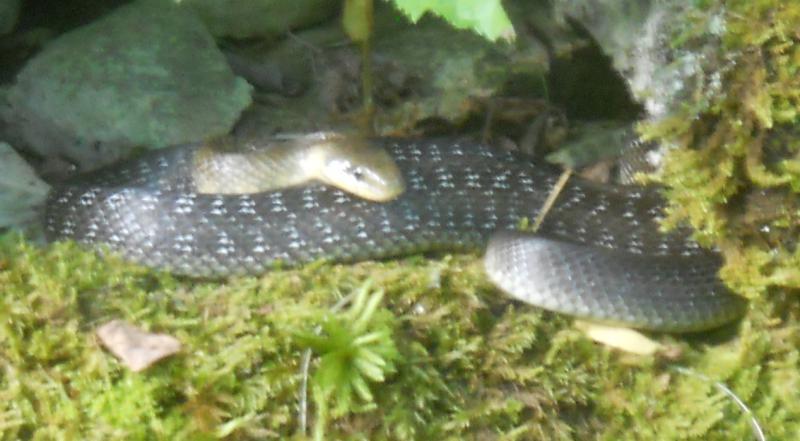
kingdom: Animalia
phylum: Chordata
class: Squamata
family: Colubridae
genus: Zamenis
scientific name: Zamenis longissimus
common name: Aesculapean snake
